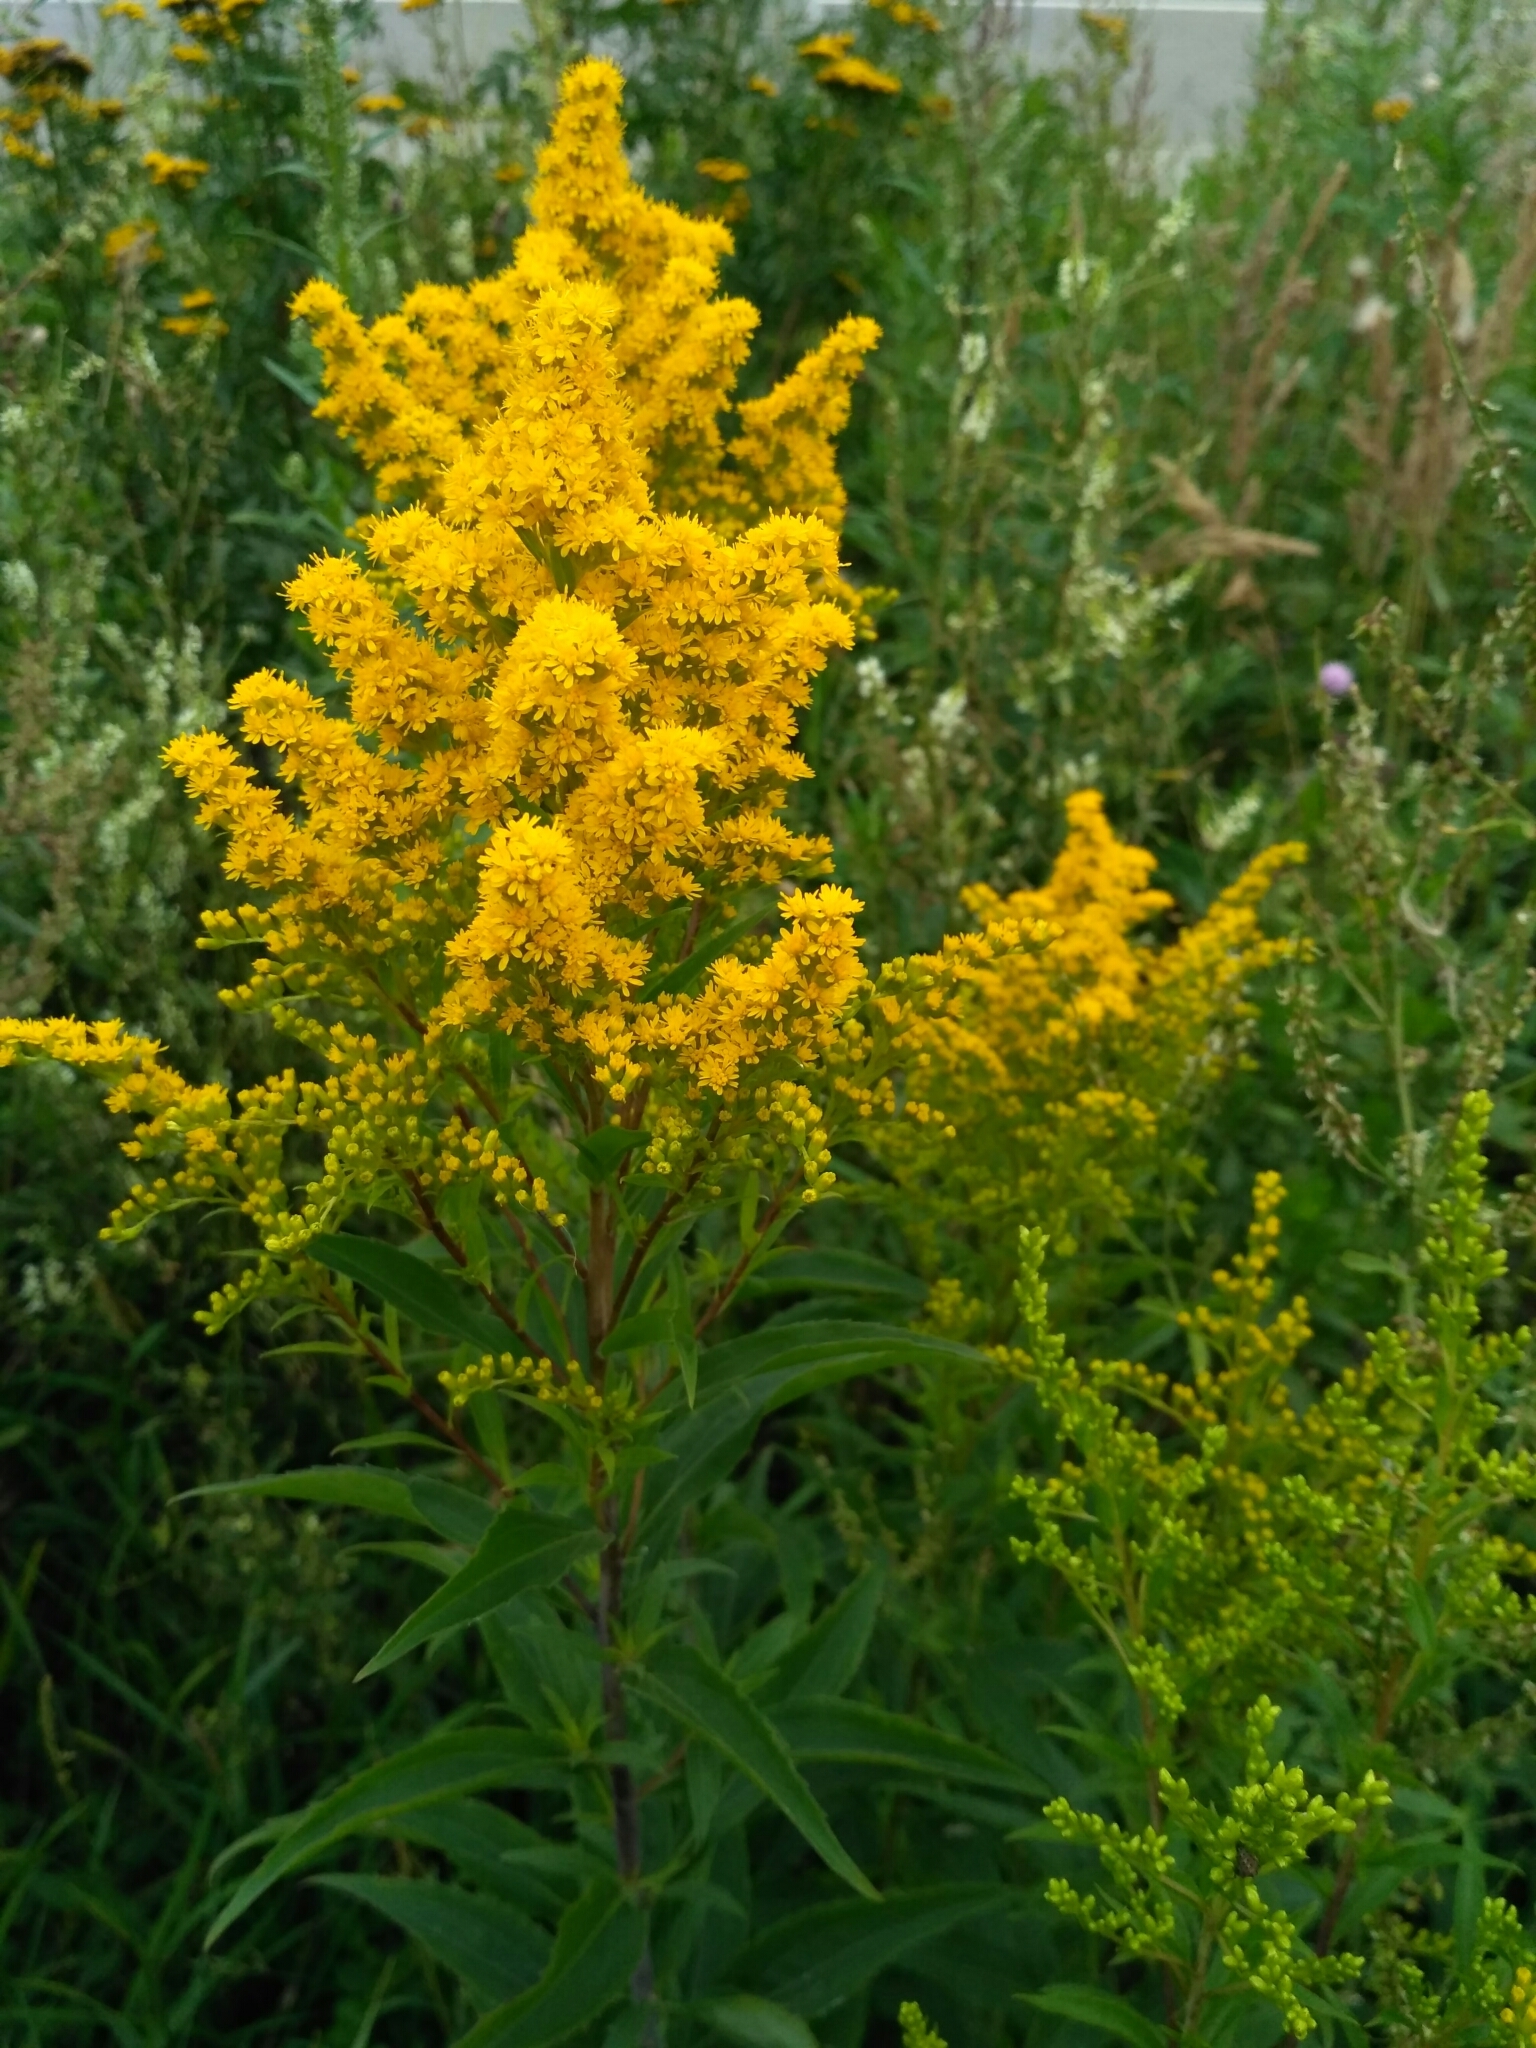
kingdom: Plantae
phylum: Tracheophyta
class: Magnoliopsida
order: Asterales
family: Asteraceae
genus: Solidago
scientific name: Solidago gigantea
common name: Giant goldenrod
